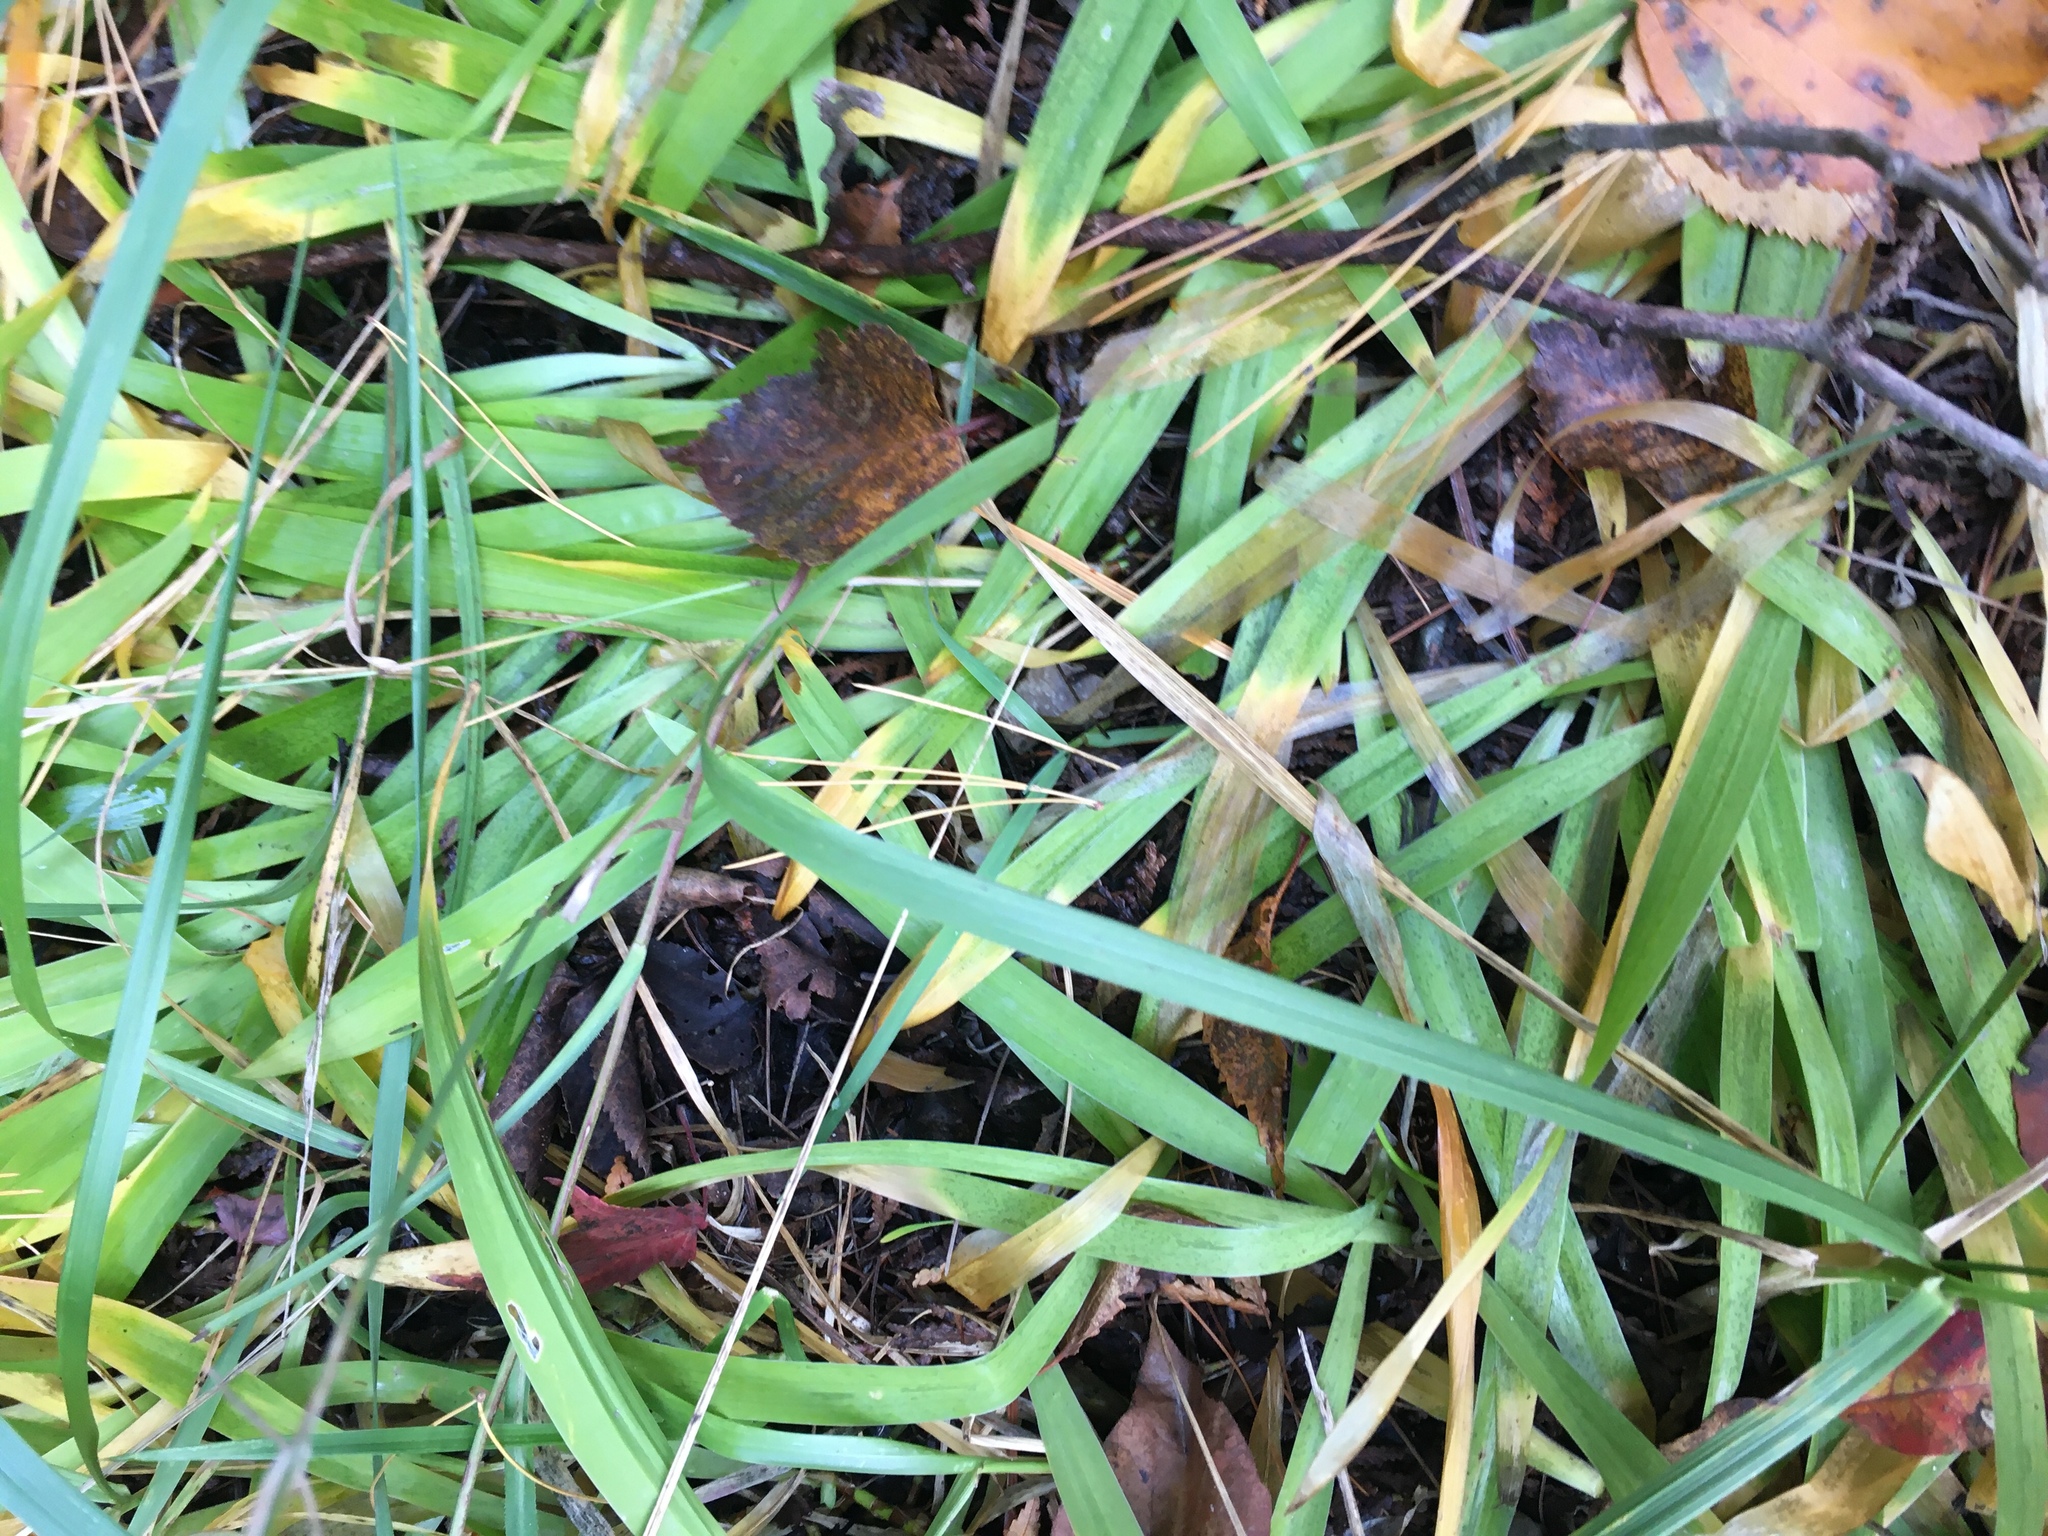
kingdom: Plantae
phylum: Tracheophyta
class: Liliopsida
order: Asparagales
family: Iridaceae
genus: Iris
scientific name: Iris lacustris
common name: Dwarf lake iris
